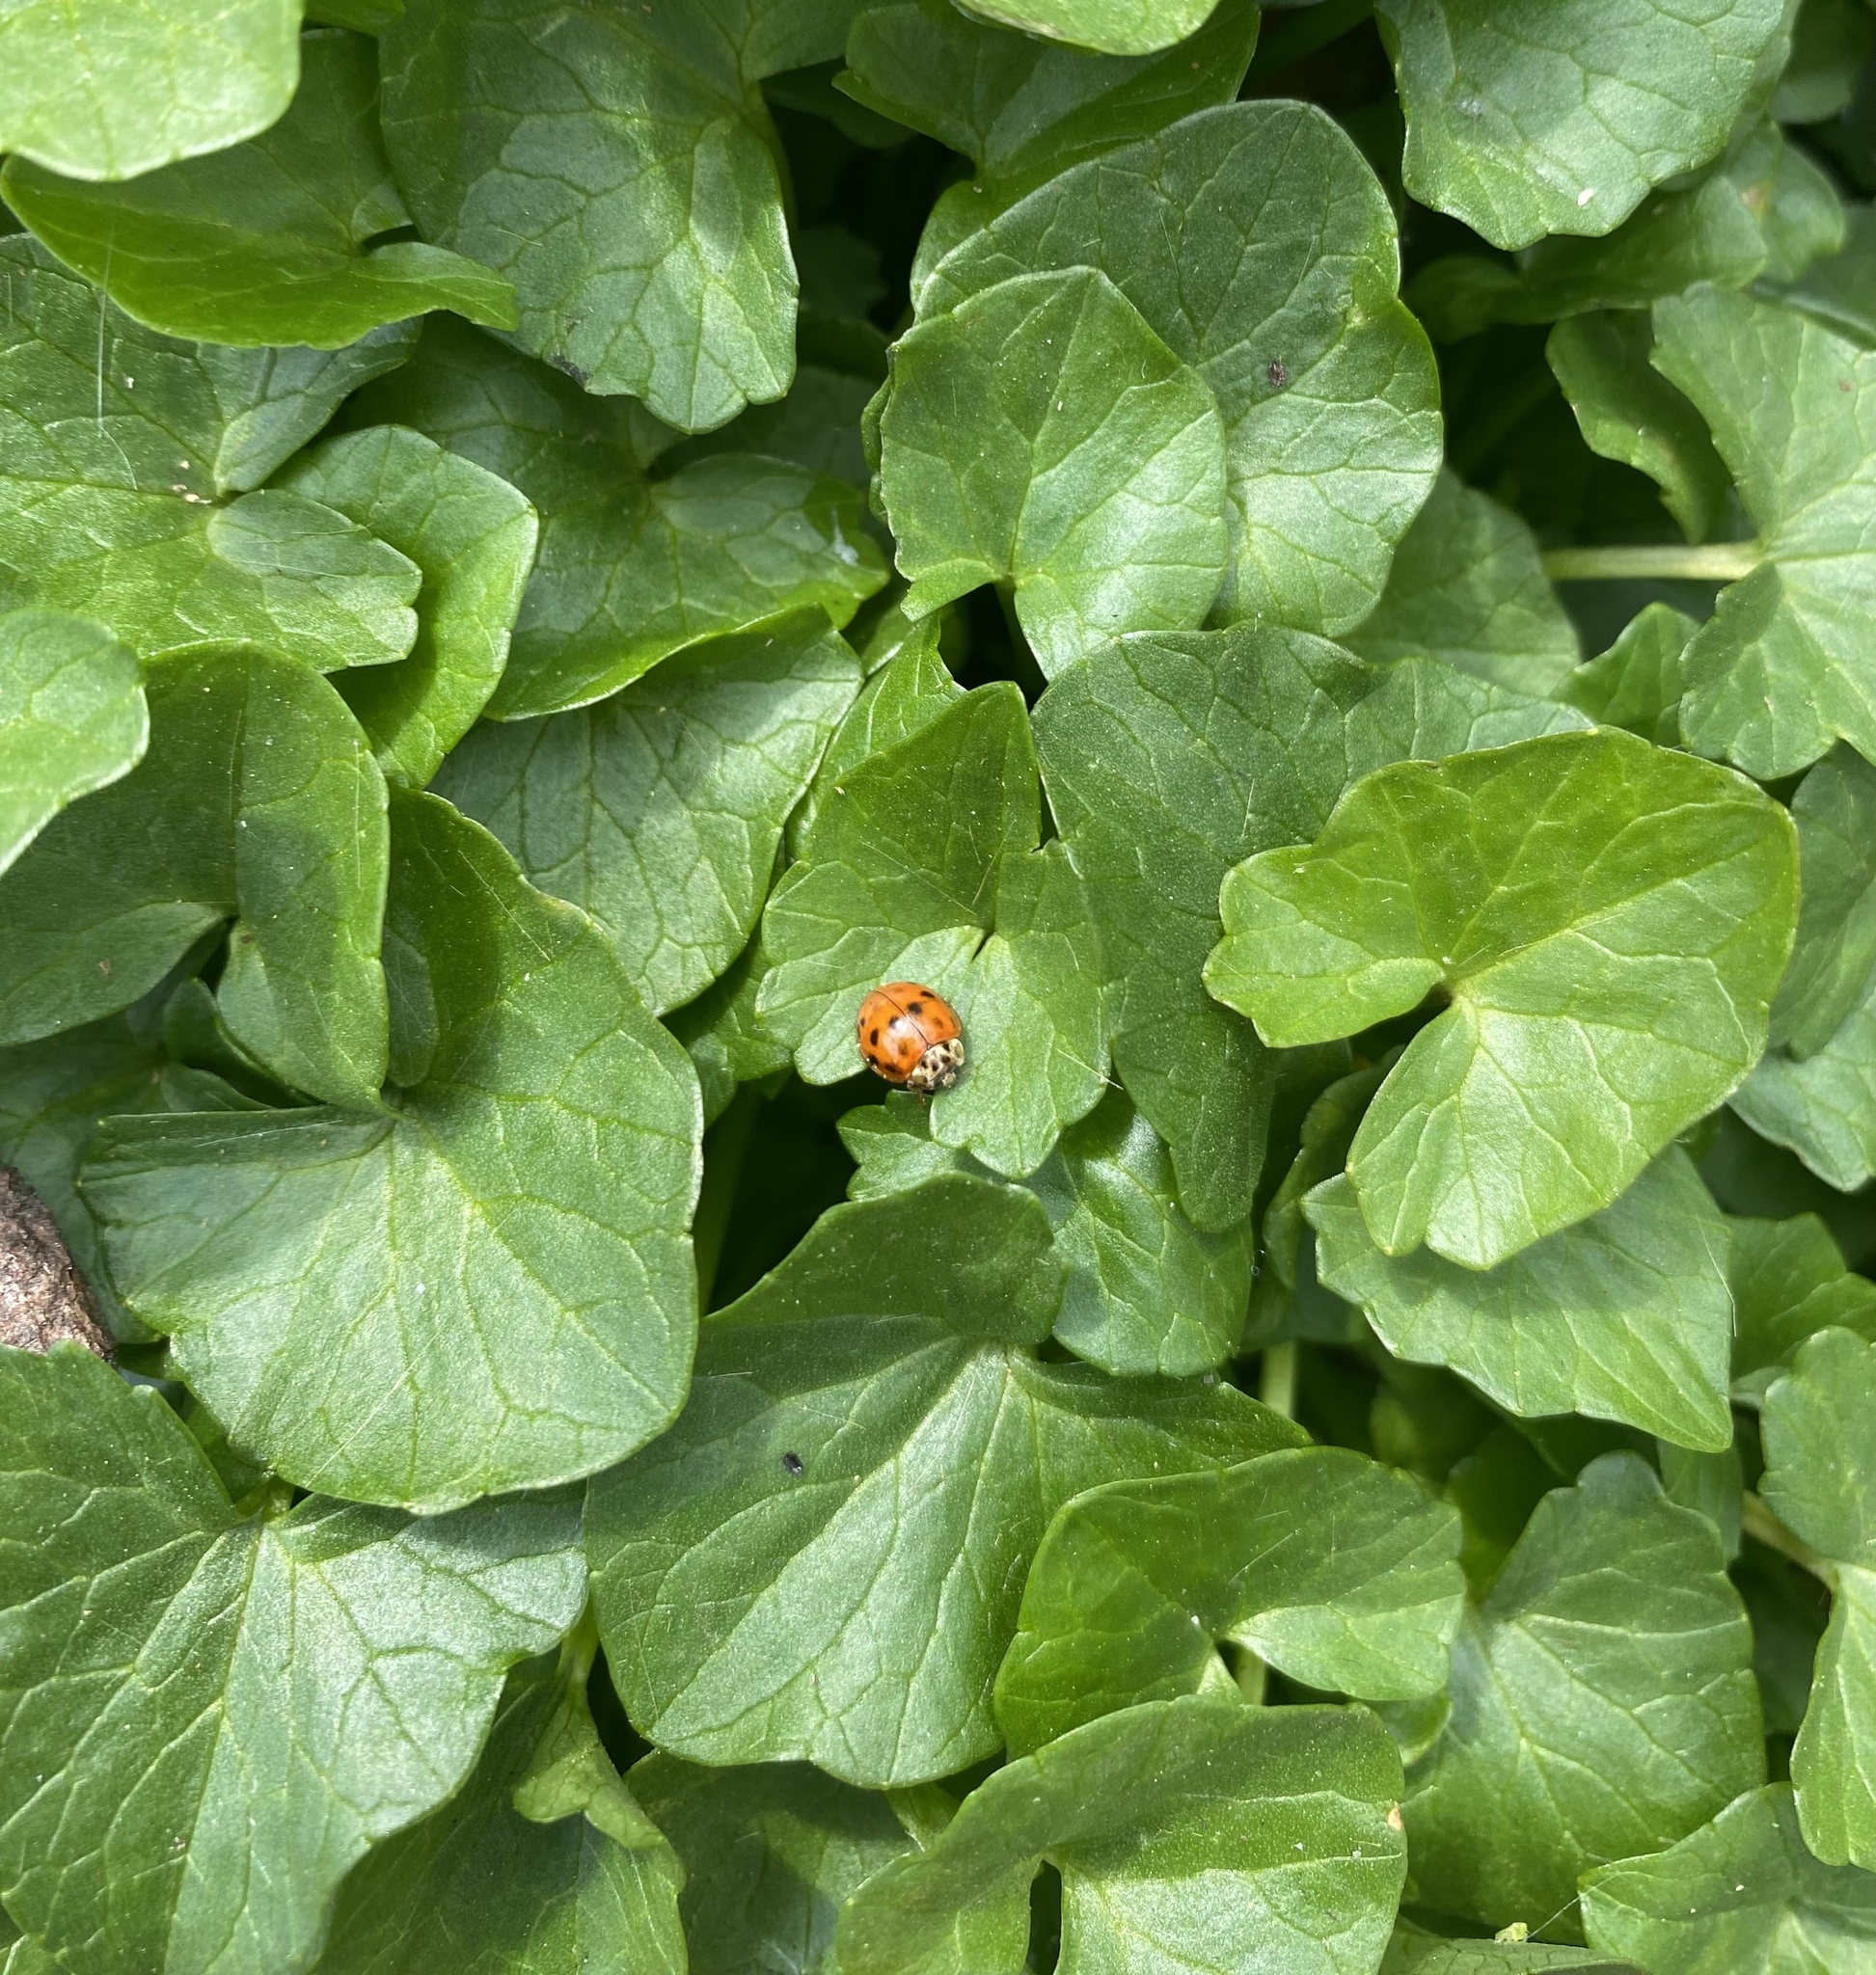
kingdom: Animalia
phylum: Arthropoda
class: Insecta
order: Coleoptera
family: Coccinellidae
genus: Harmonia
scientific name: Harmonia axyridis
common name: Harlequin ladybird
